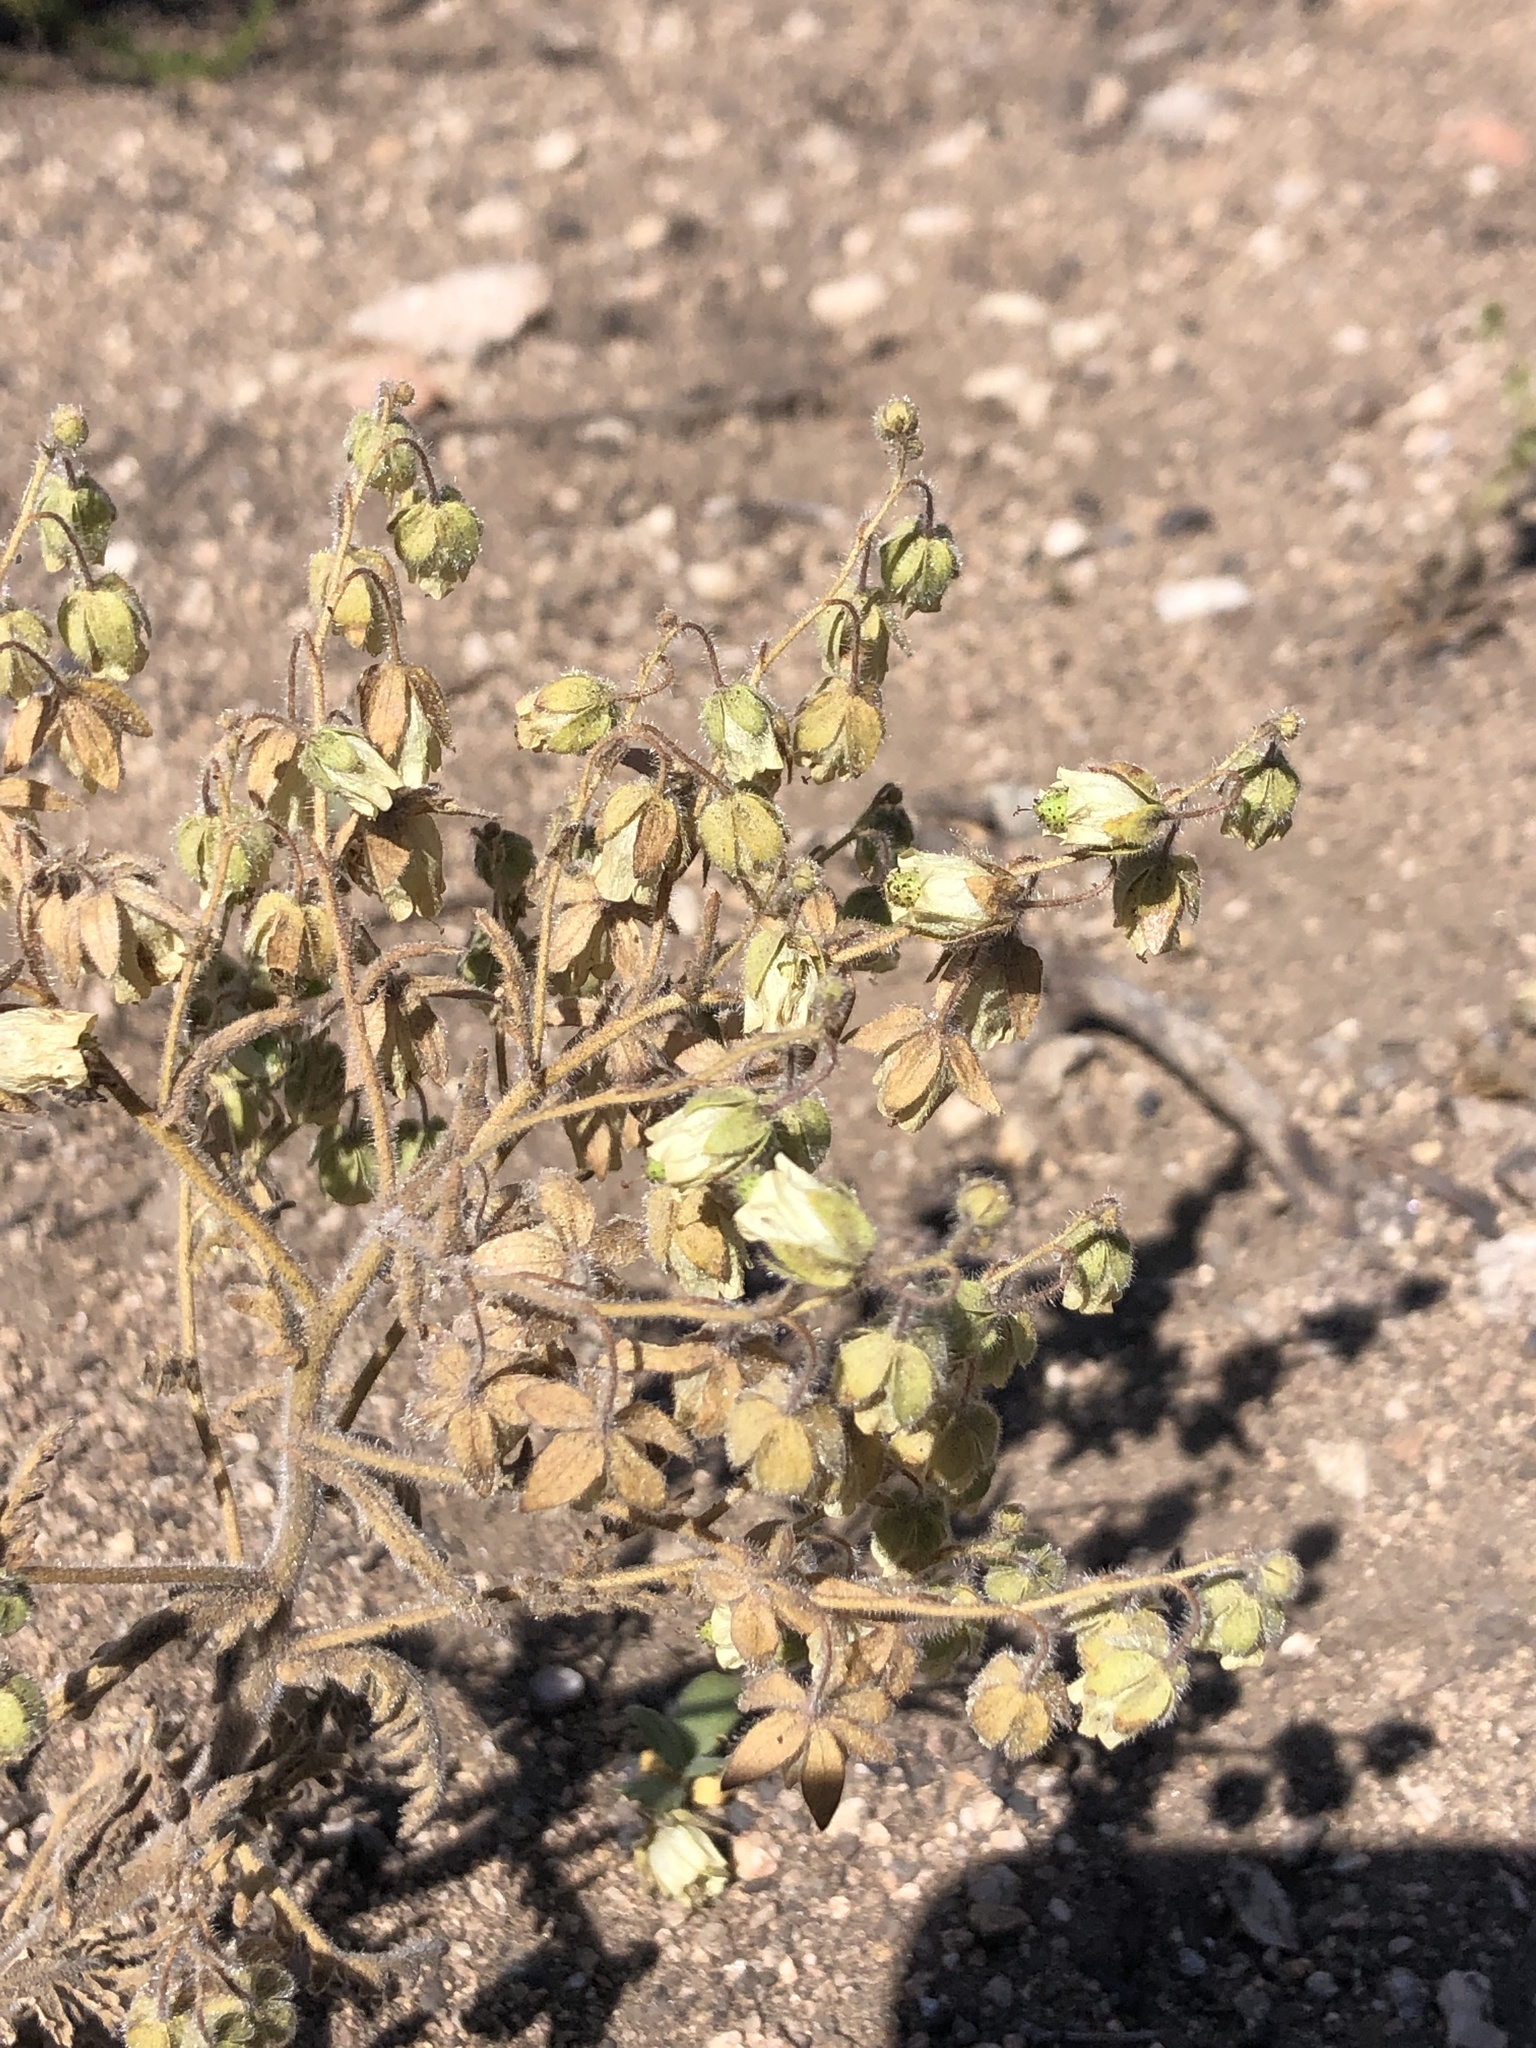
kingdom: Plantae
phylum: Tracheophyta
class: Magnoliopsida
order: Boraginales
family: Hydrophyllaceae
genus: Emmenanthe
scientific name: Emmenanthe penduliflora
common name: Whispering-bells
